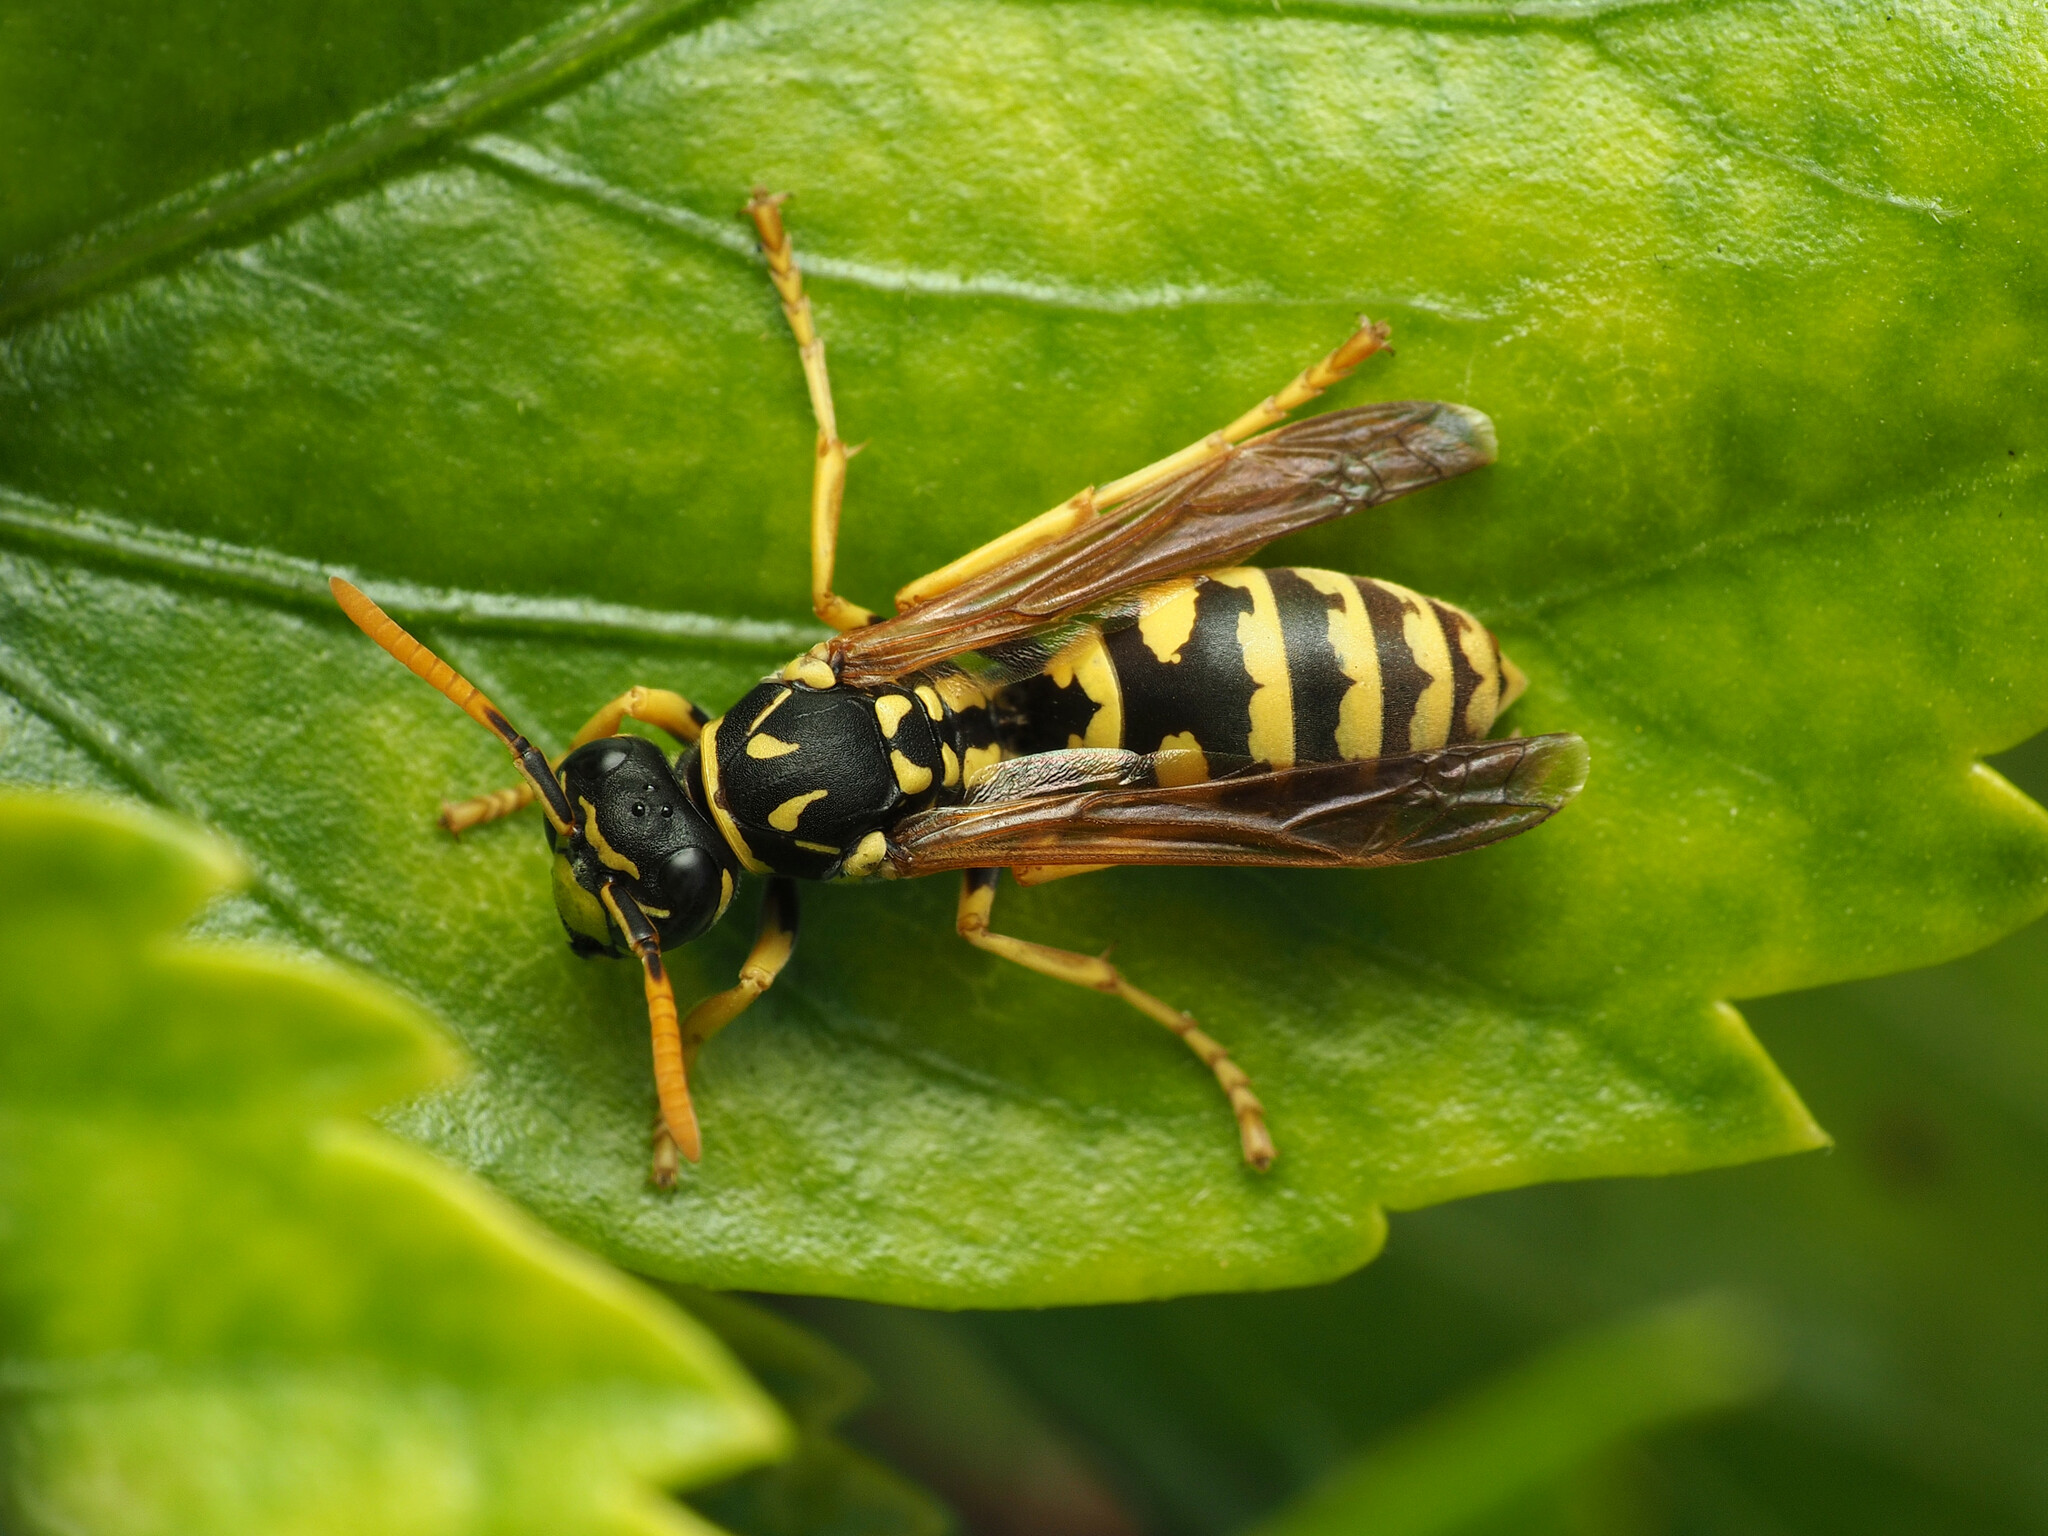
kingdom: Animalia
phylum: Arthropoda
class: Insecta
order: Hymenoptera
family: Eumenidae
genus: Polistes
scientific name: Polistes dominula
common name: Paper wasp
